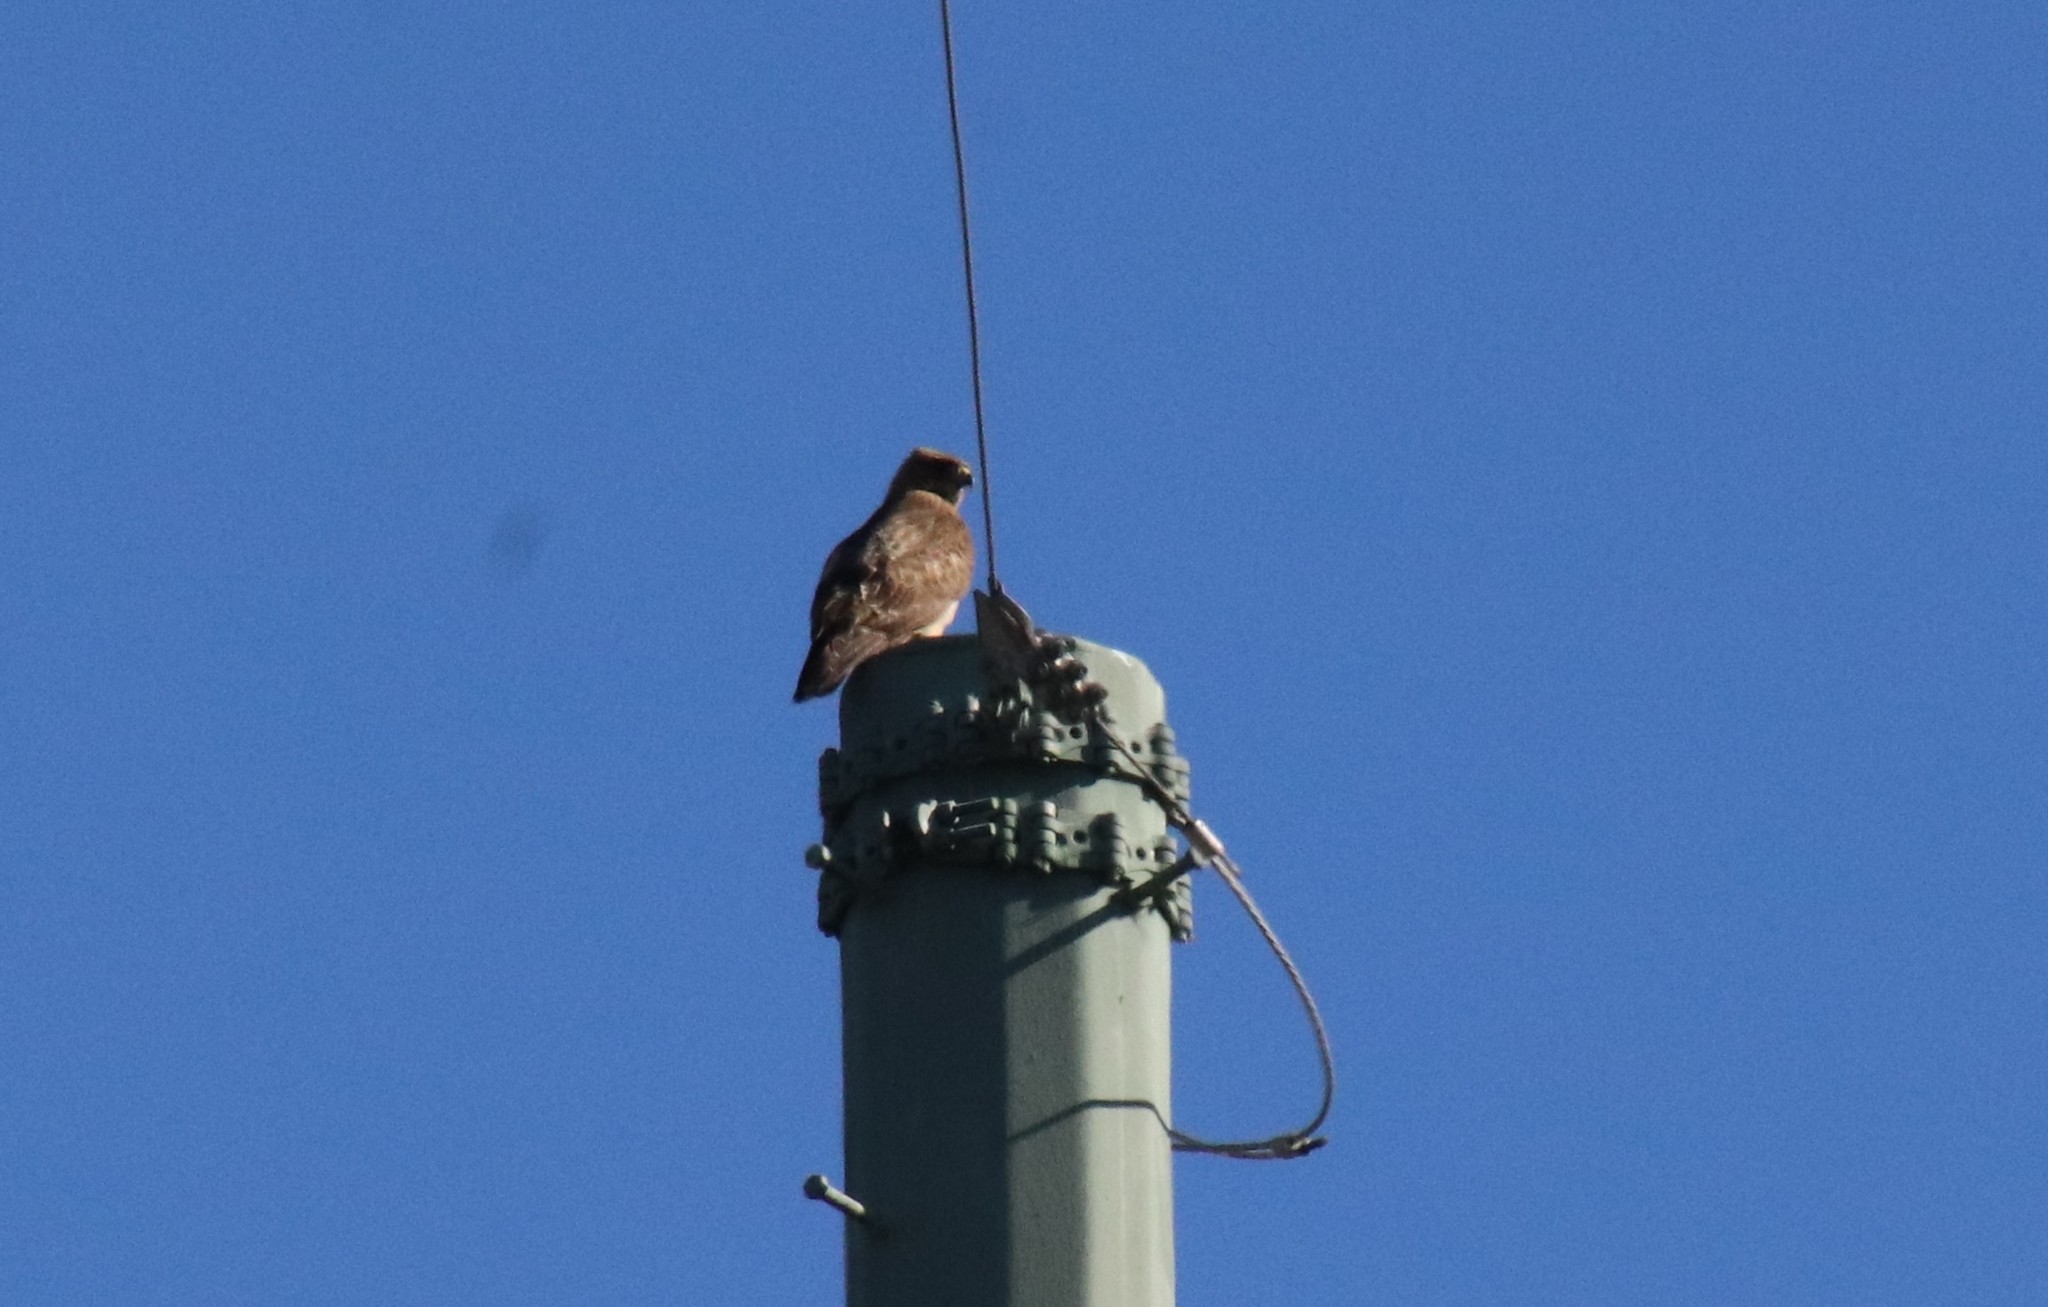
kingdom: Animalia
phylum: Chordata
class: Aves
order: Accipitriformes
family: Accipitridae
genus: Buteo
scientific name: Buteo jamaicensis
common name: Red-tailed hawk
